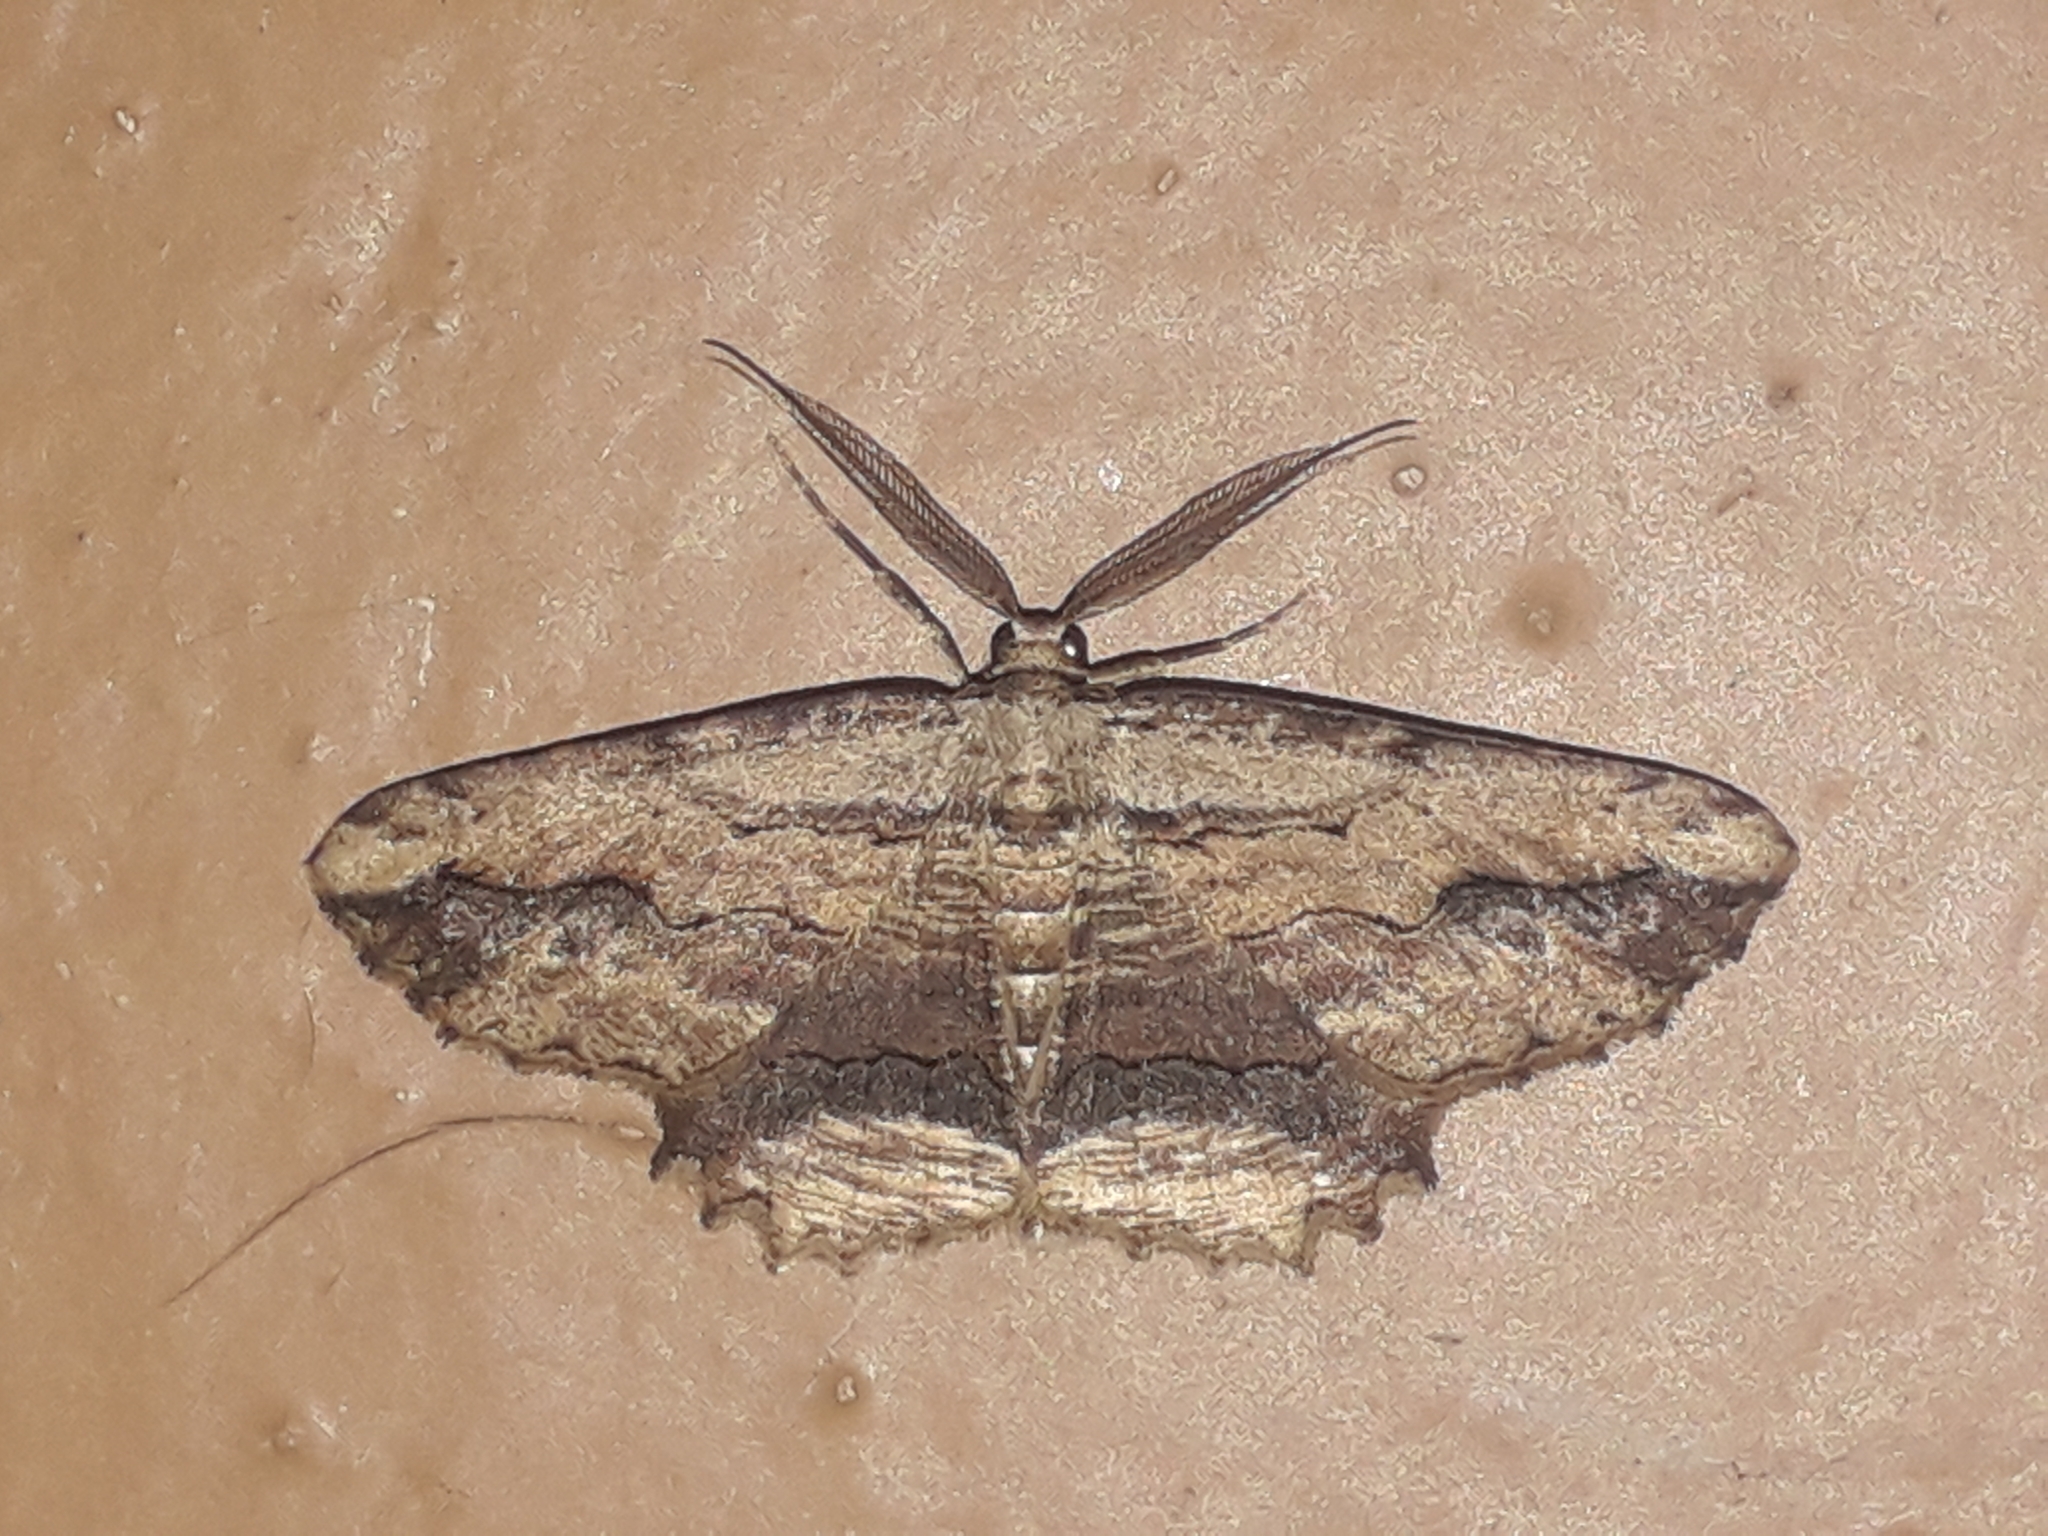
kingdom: Animalia
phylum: Arthropoda
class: Insecta
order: Lepidoptera
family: Geometridae
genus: Menophra
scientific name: Menophra abruptaria
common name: Waved umber
